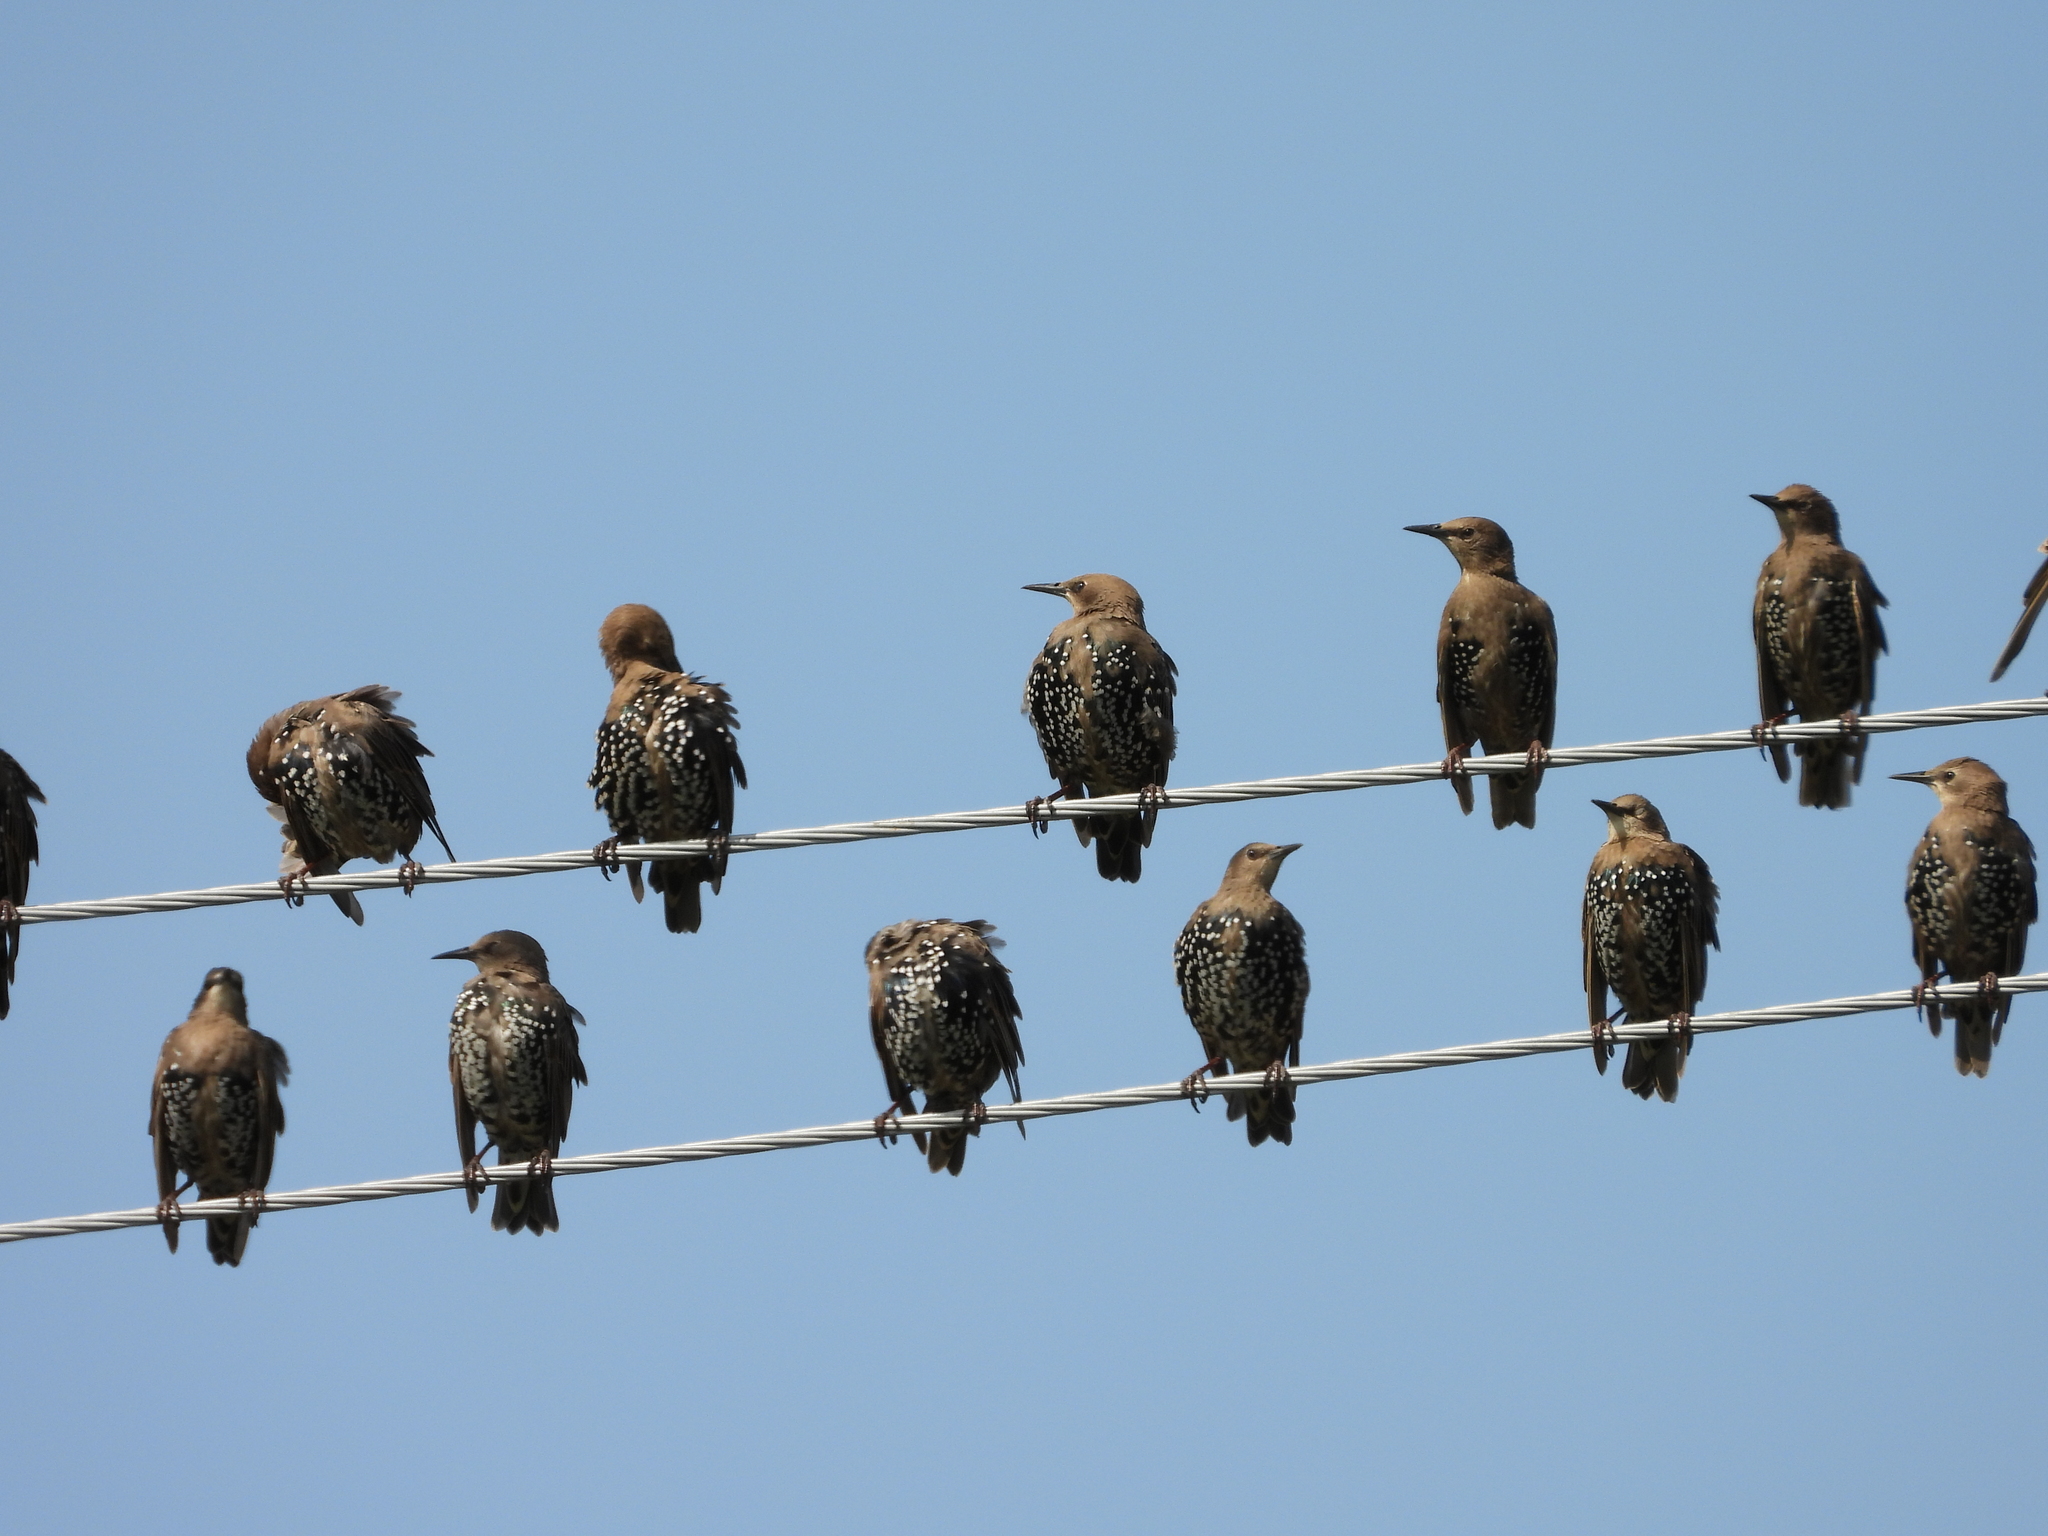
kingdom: Animalia
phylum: Chordata
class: Aves
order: Passeriformes
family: Sturnidae
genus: Sturnus
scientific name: Sturnus vulgaris
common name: Common starling
